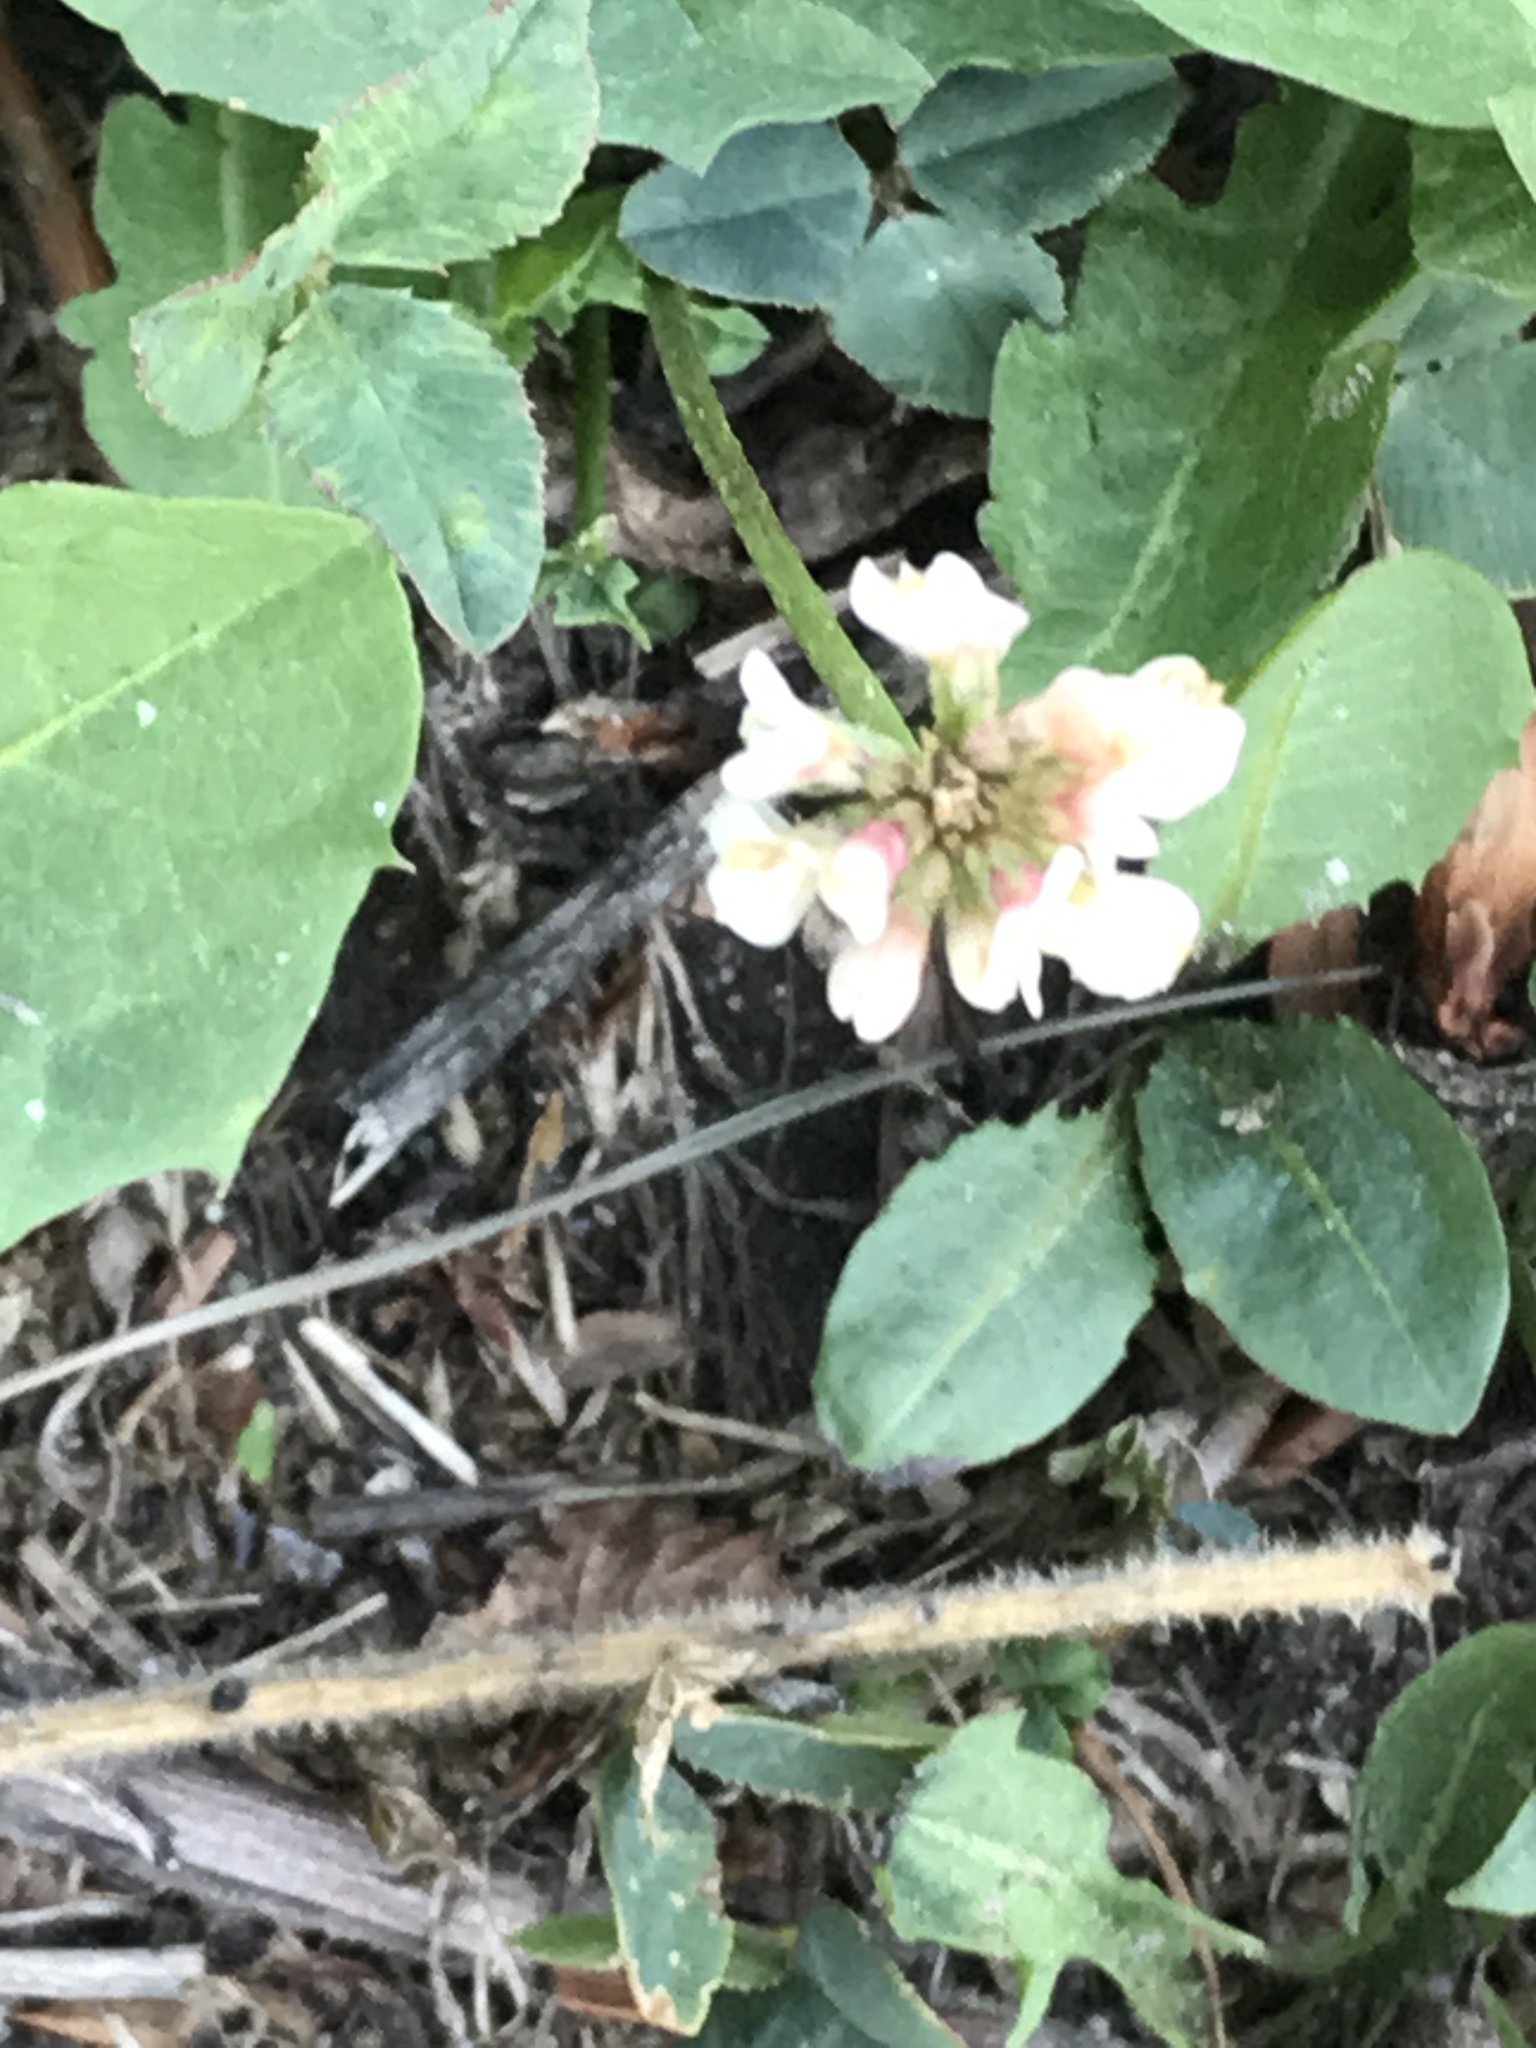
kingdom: Plantae
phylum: Tracheophyta
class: Magnoliopsida
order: Fabales
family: Fabaceae
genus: Trifolium
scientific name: Trifolium repens
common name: White clover
